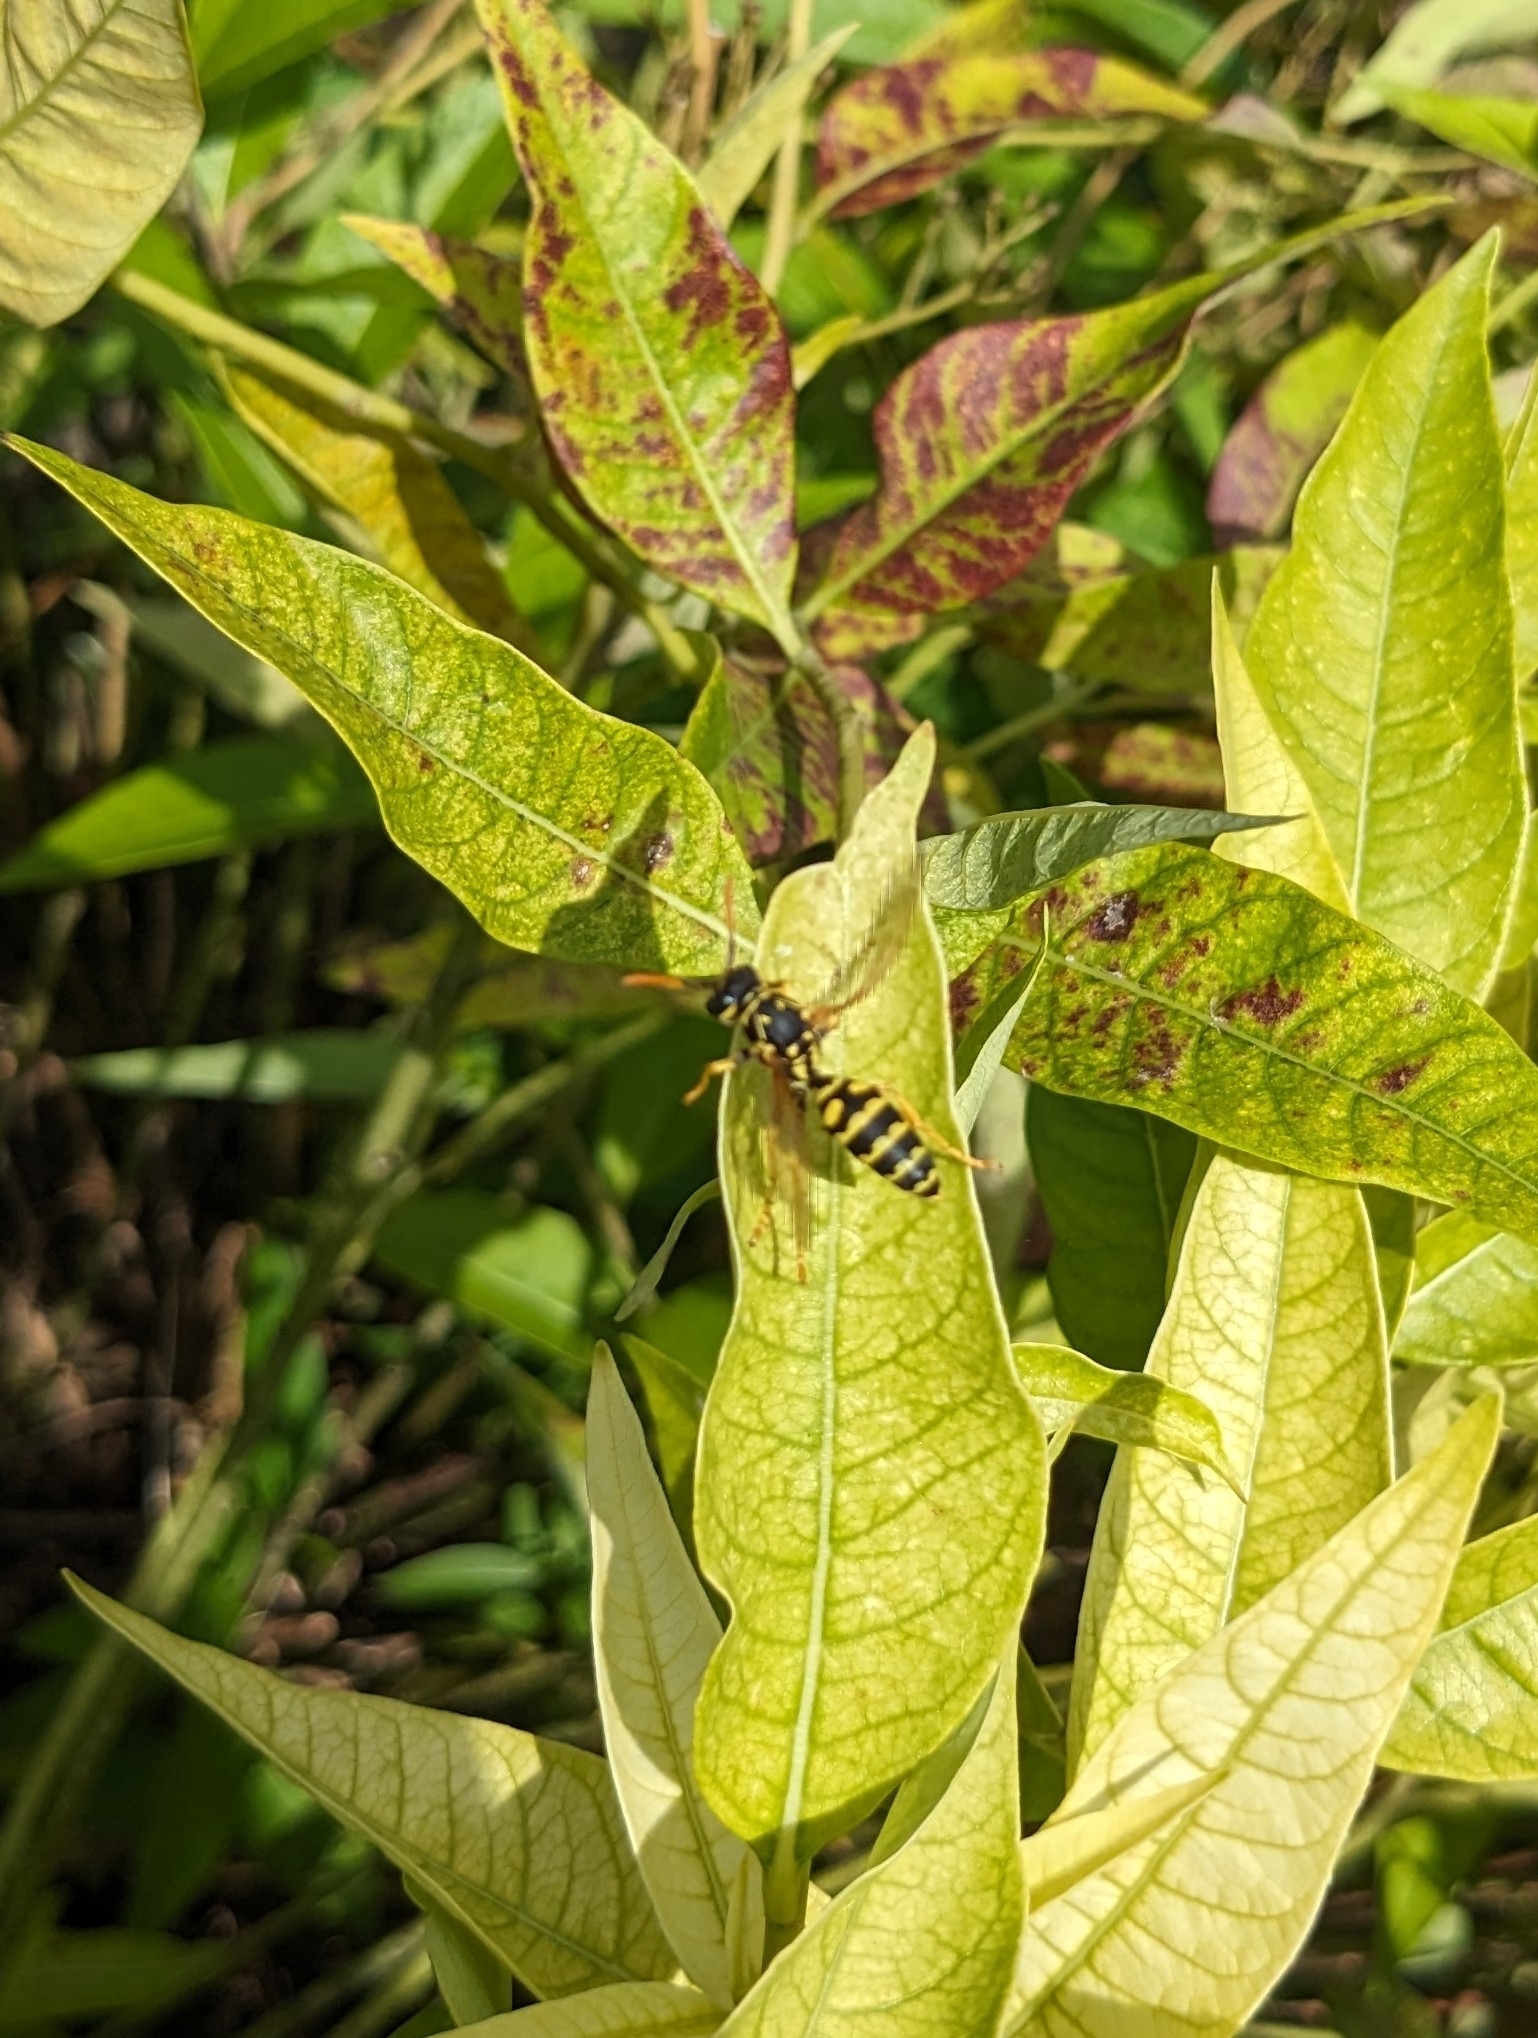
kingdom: Animalia
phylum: Arthropoda
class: Insecta
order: Hymenoptera
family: Eumenidae
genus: Polistes
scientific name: Polistes dominula
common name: Paper wasp
